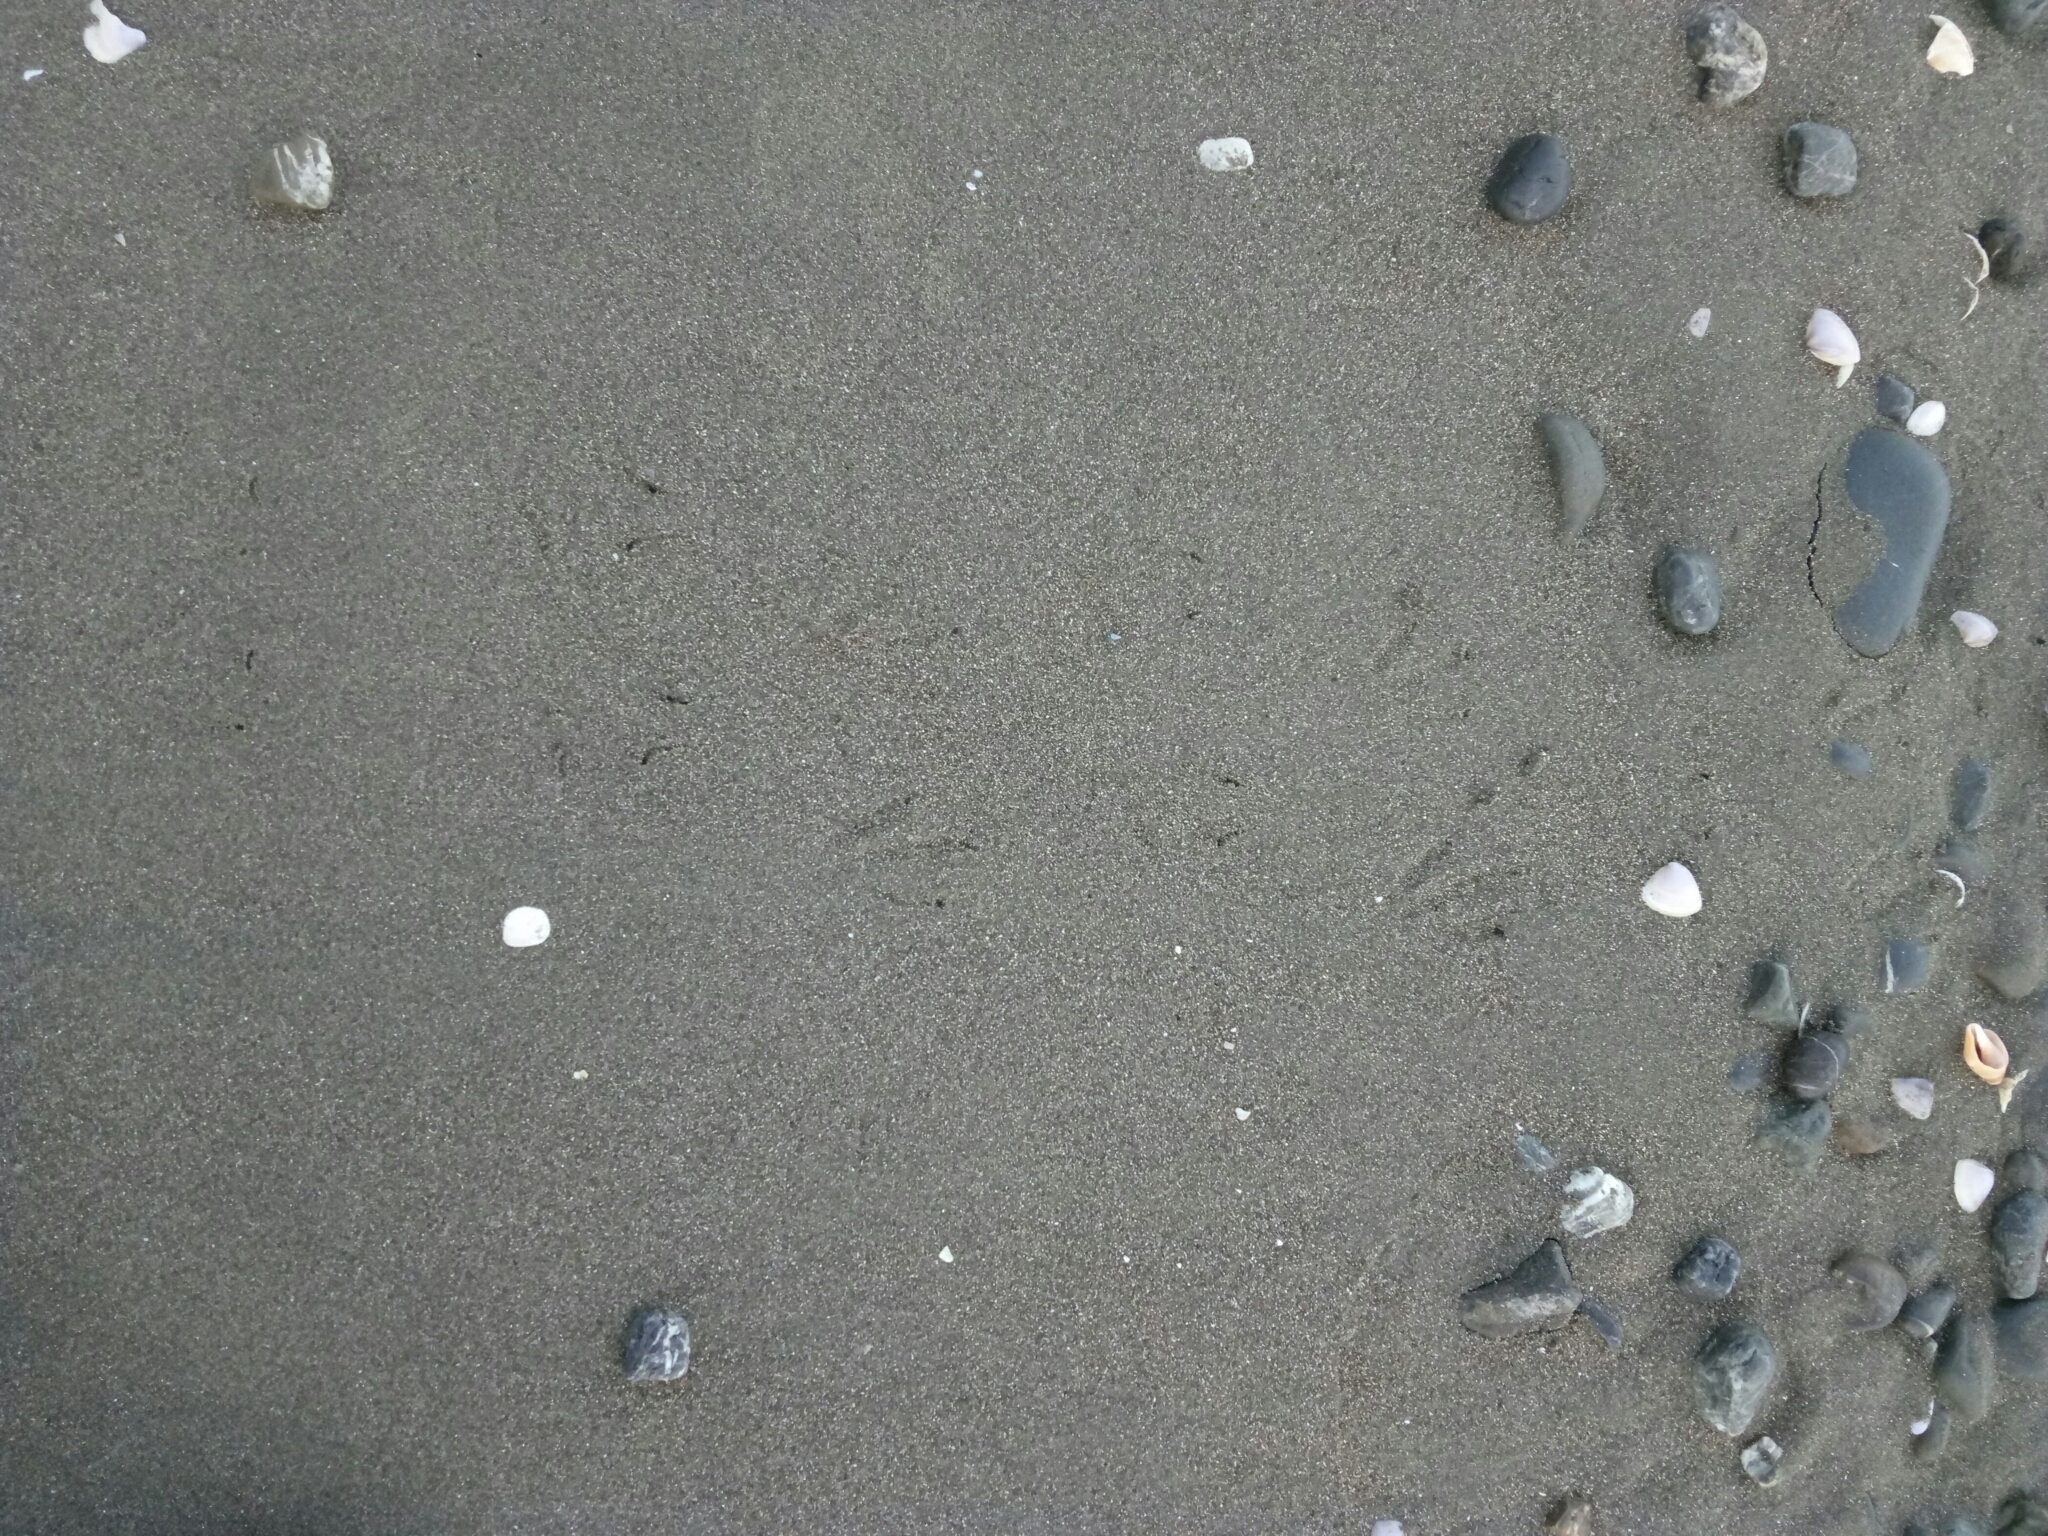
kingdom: Animalia
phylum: Chordata
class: Aves
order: Sphenisciformes
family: Spheniscidae
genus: Eudyptula
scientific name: Eudyptula minor
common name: Little penguin
